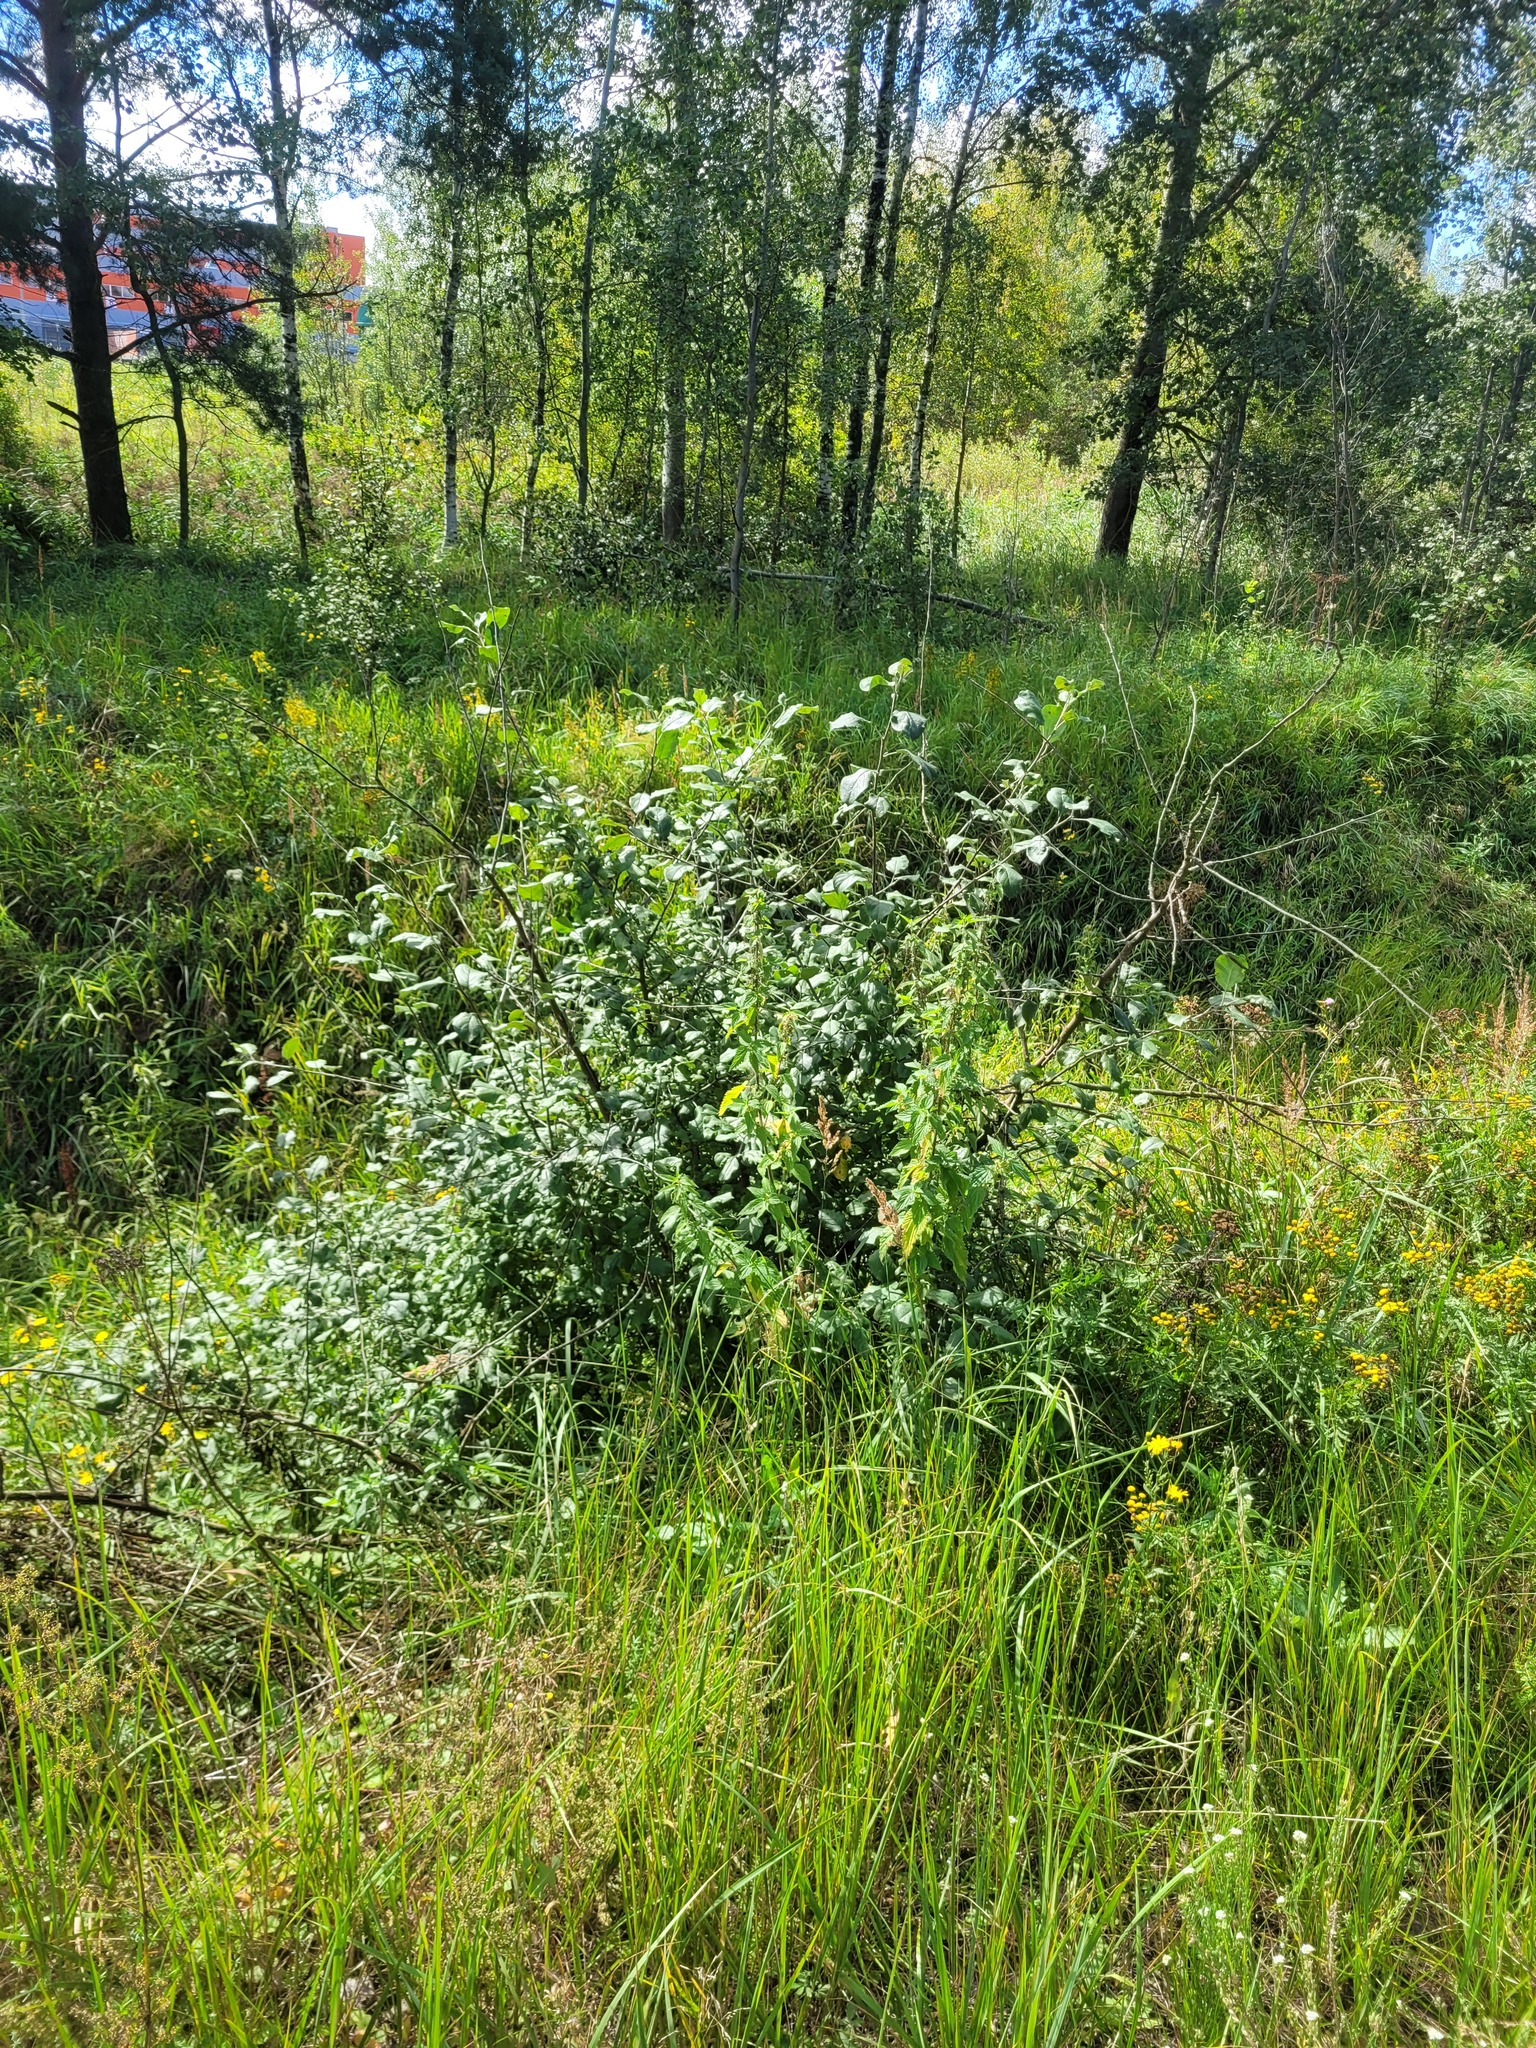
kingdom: Plantae
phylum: Tracheophyta
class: Magnoliopsida
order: Rosales
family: Rosaceae
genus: Malus
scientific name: Malus domestica
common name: Apple
